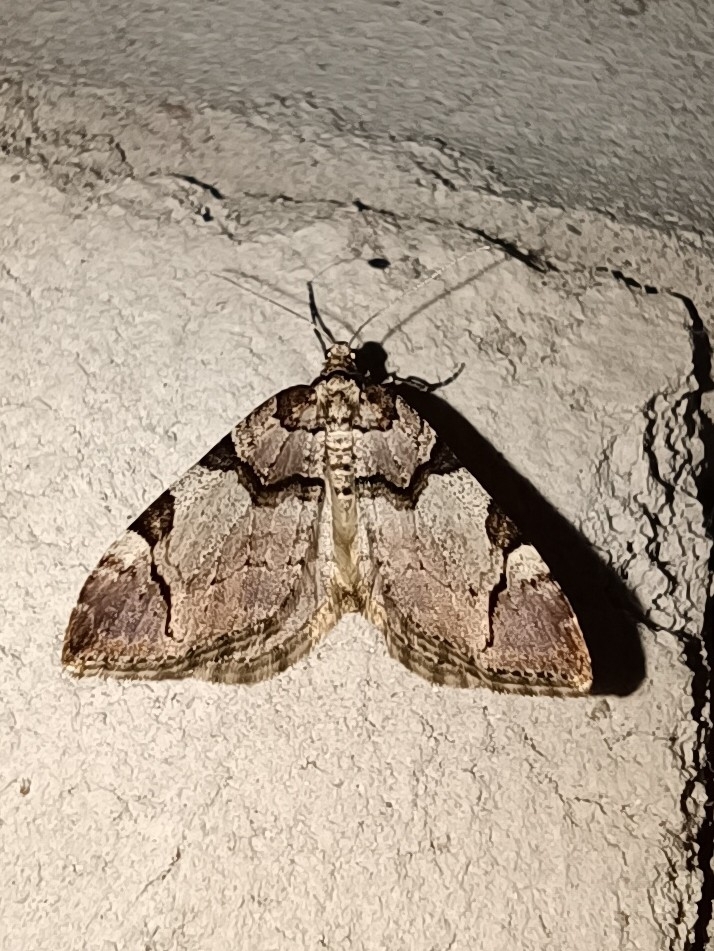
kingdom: Animalia
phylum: Arthropoda
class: Insecta
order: Lepidoptera
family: Geometridae
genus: Anticlea
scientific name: Anticlea derivata
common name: Streamer
